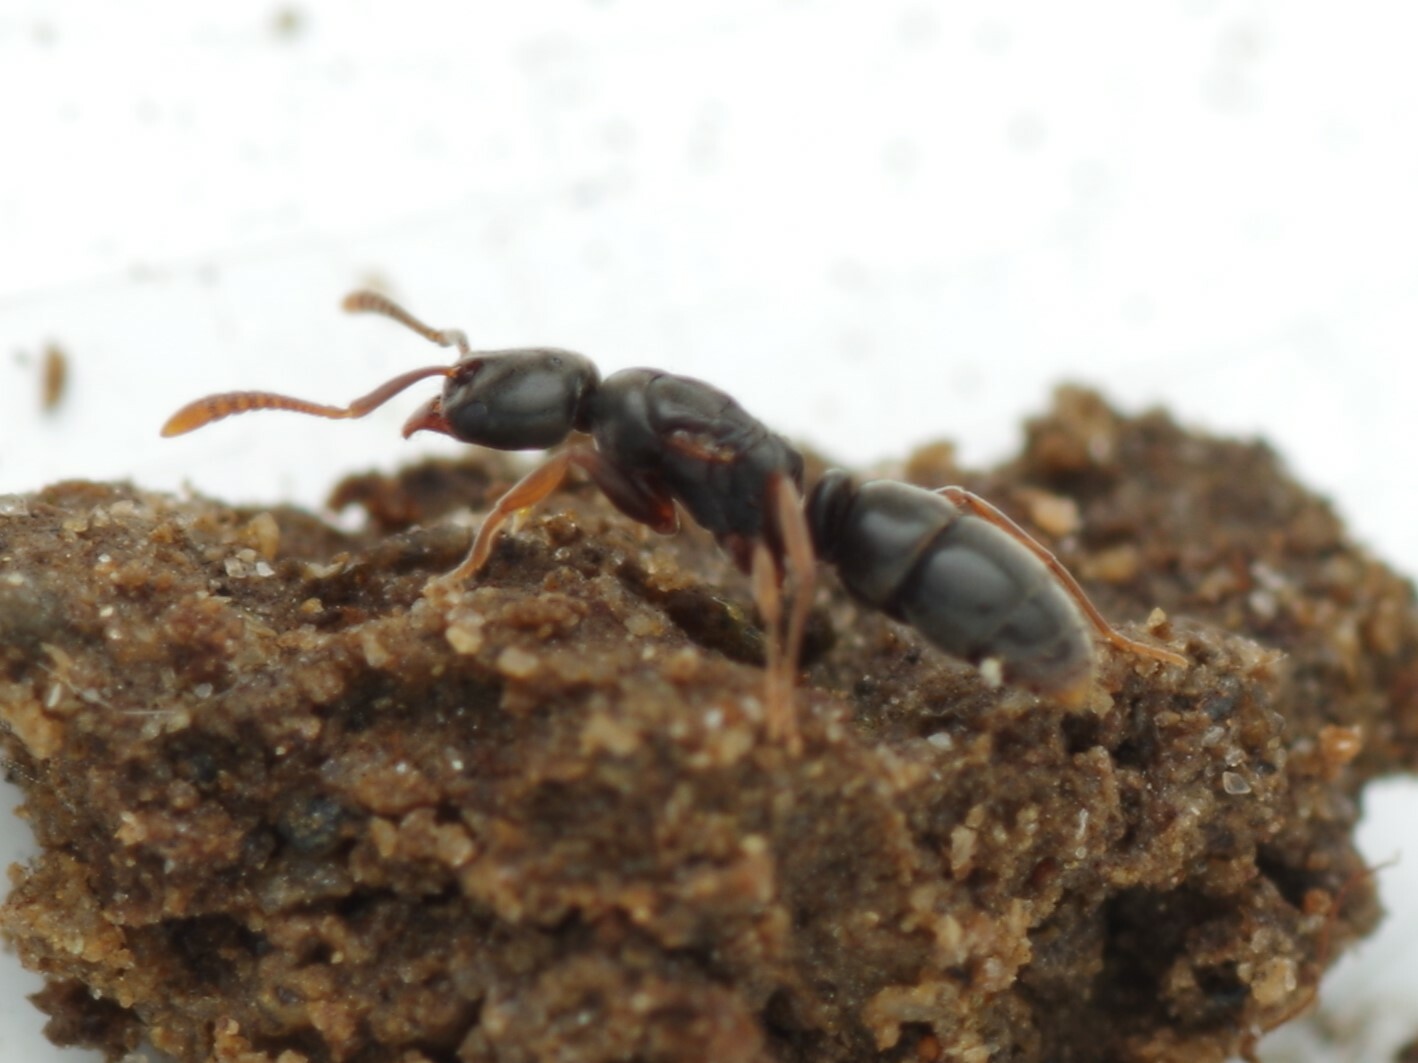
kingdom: Animalia
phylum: Arthropoda
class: Insecta
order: Hymenoptera
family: Formicidae
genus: Hypoponera
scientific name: Hypoponera eduardi
